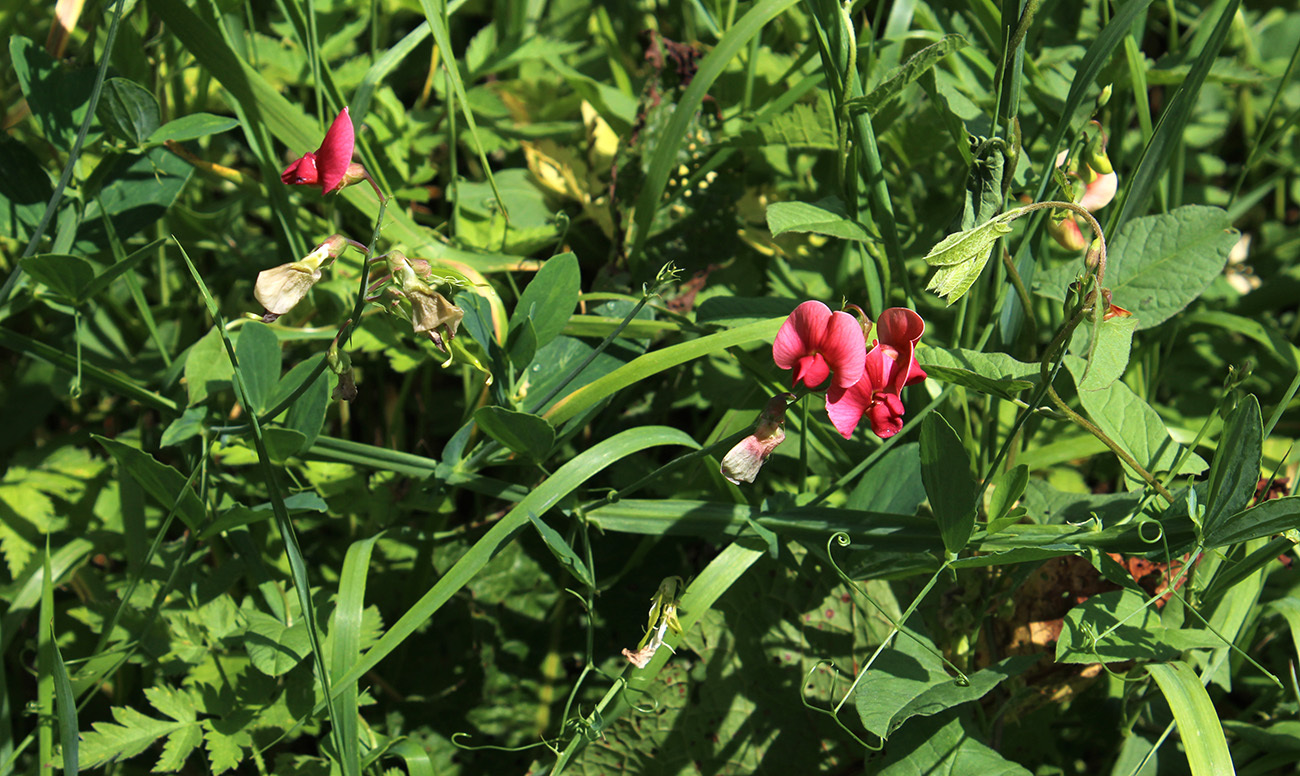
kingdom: Plantae
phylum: Tracheophyta
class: Magnoliopsida
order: Fabales
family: Fabaceae
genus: Lathyrus
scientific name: Lathyrus miniatus
